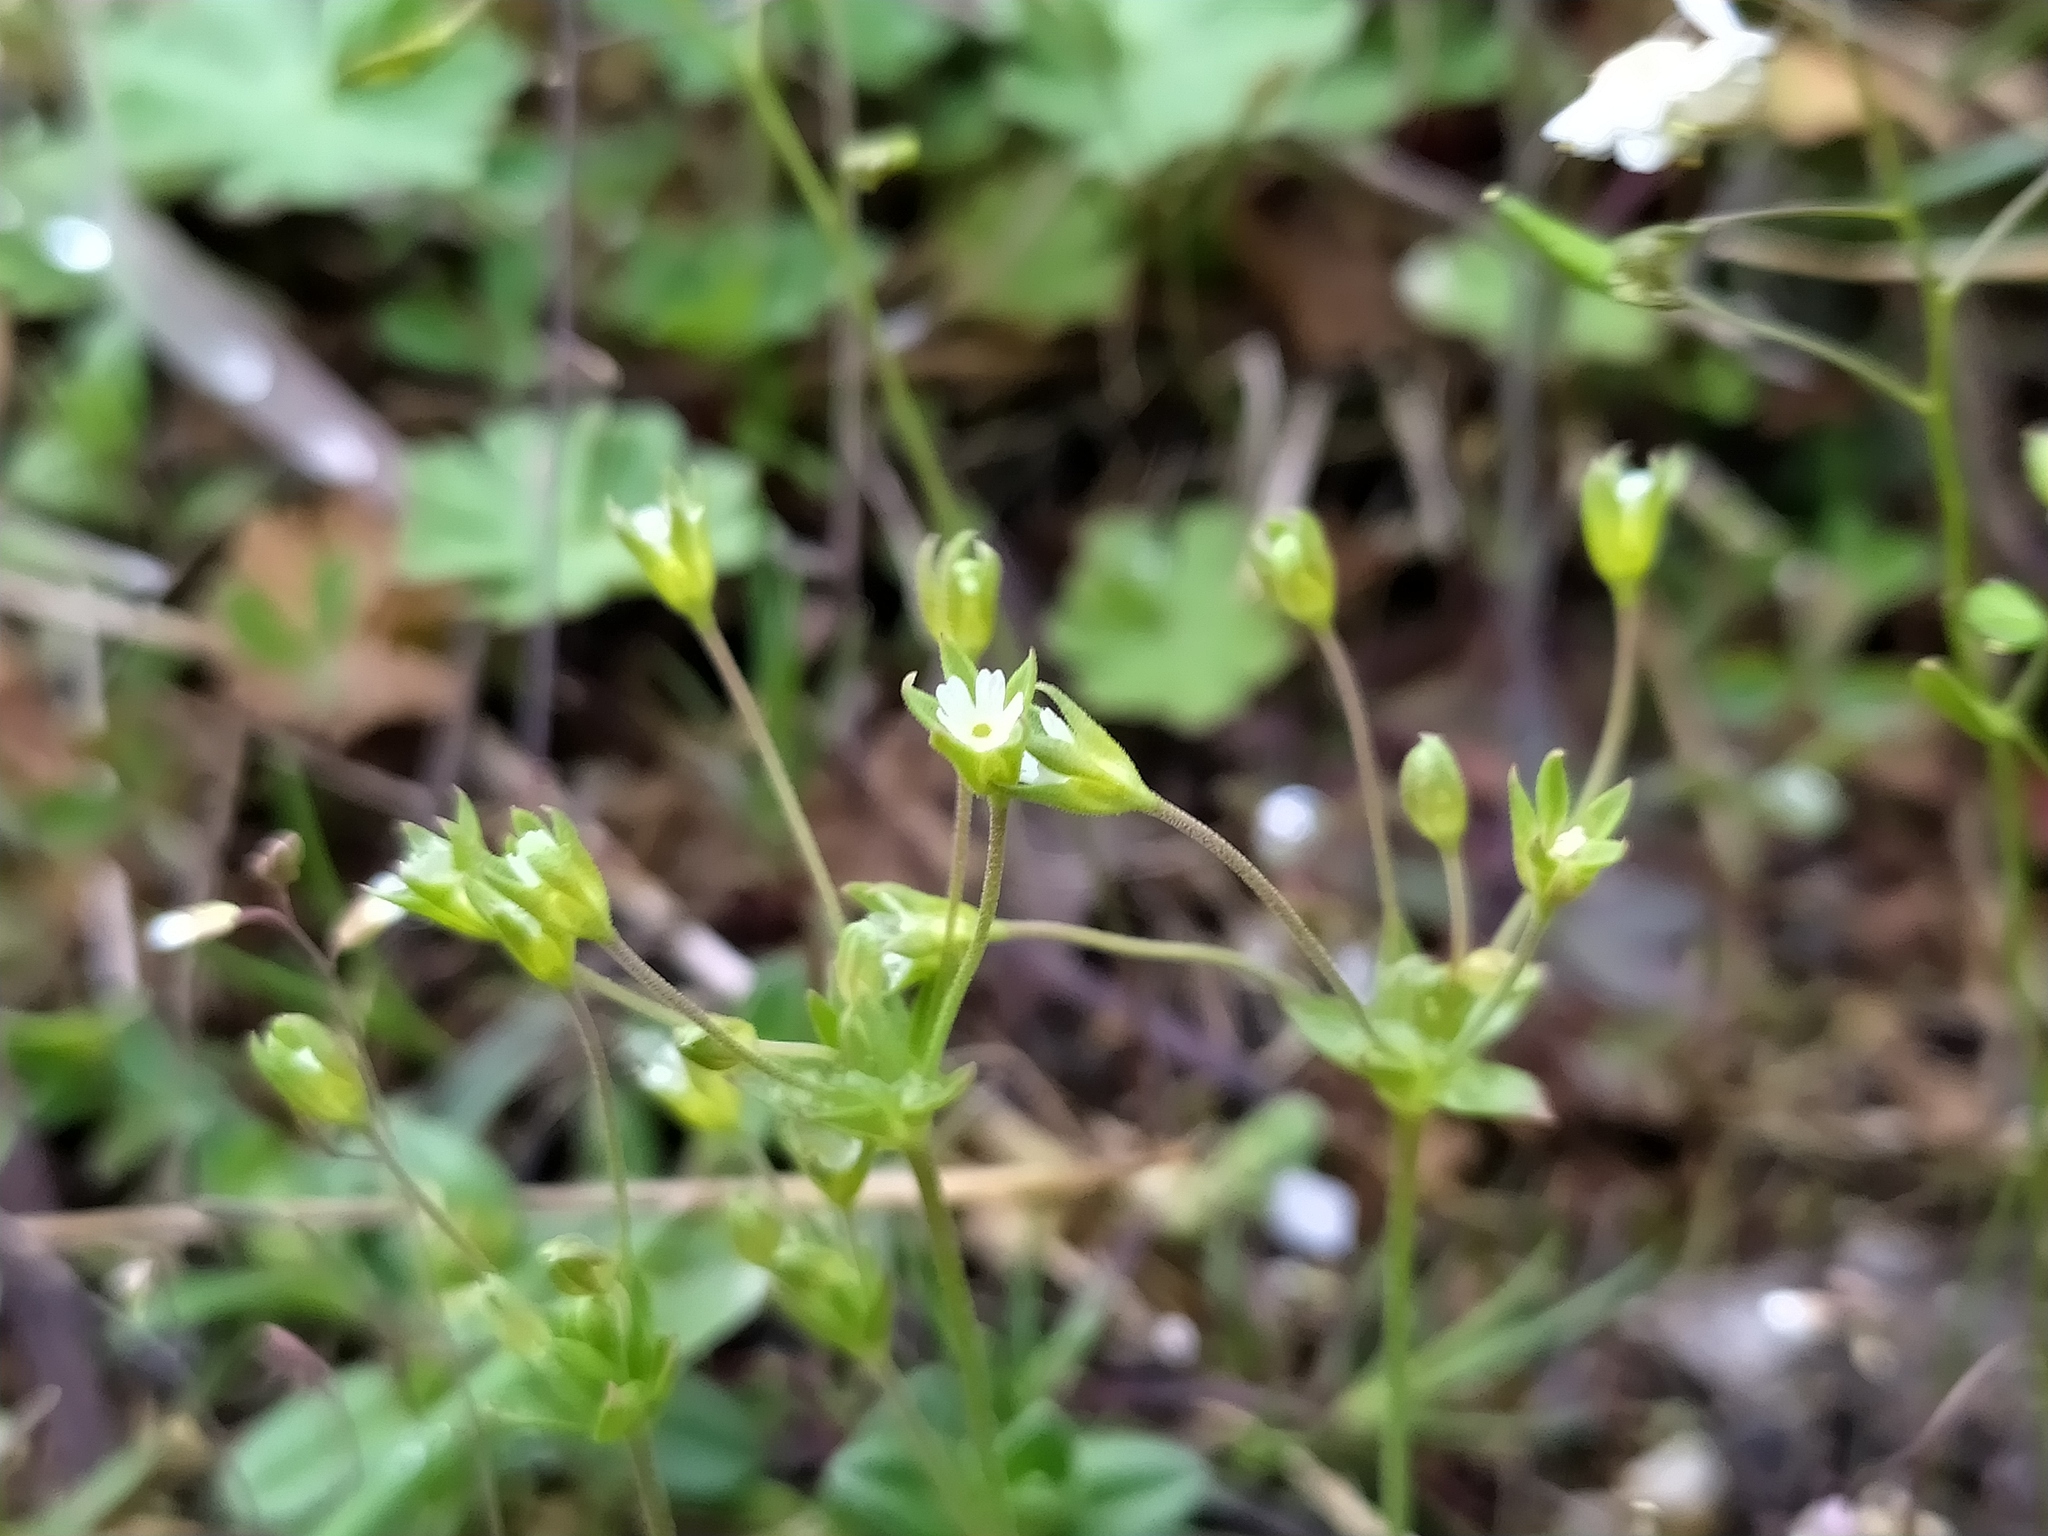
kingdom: Plantae
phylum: Tracheophyta
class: Magnoliopsida
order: Ericales
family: Primulaceae
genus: Androsace
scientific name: Androsace elongata
